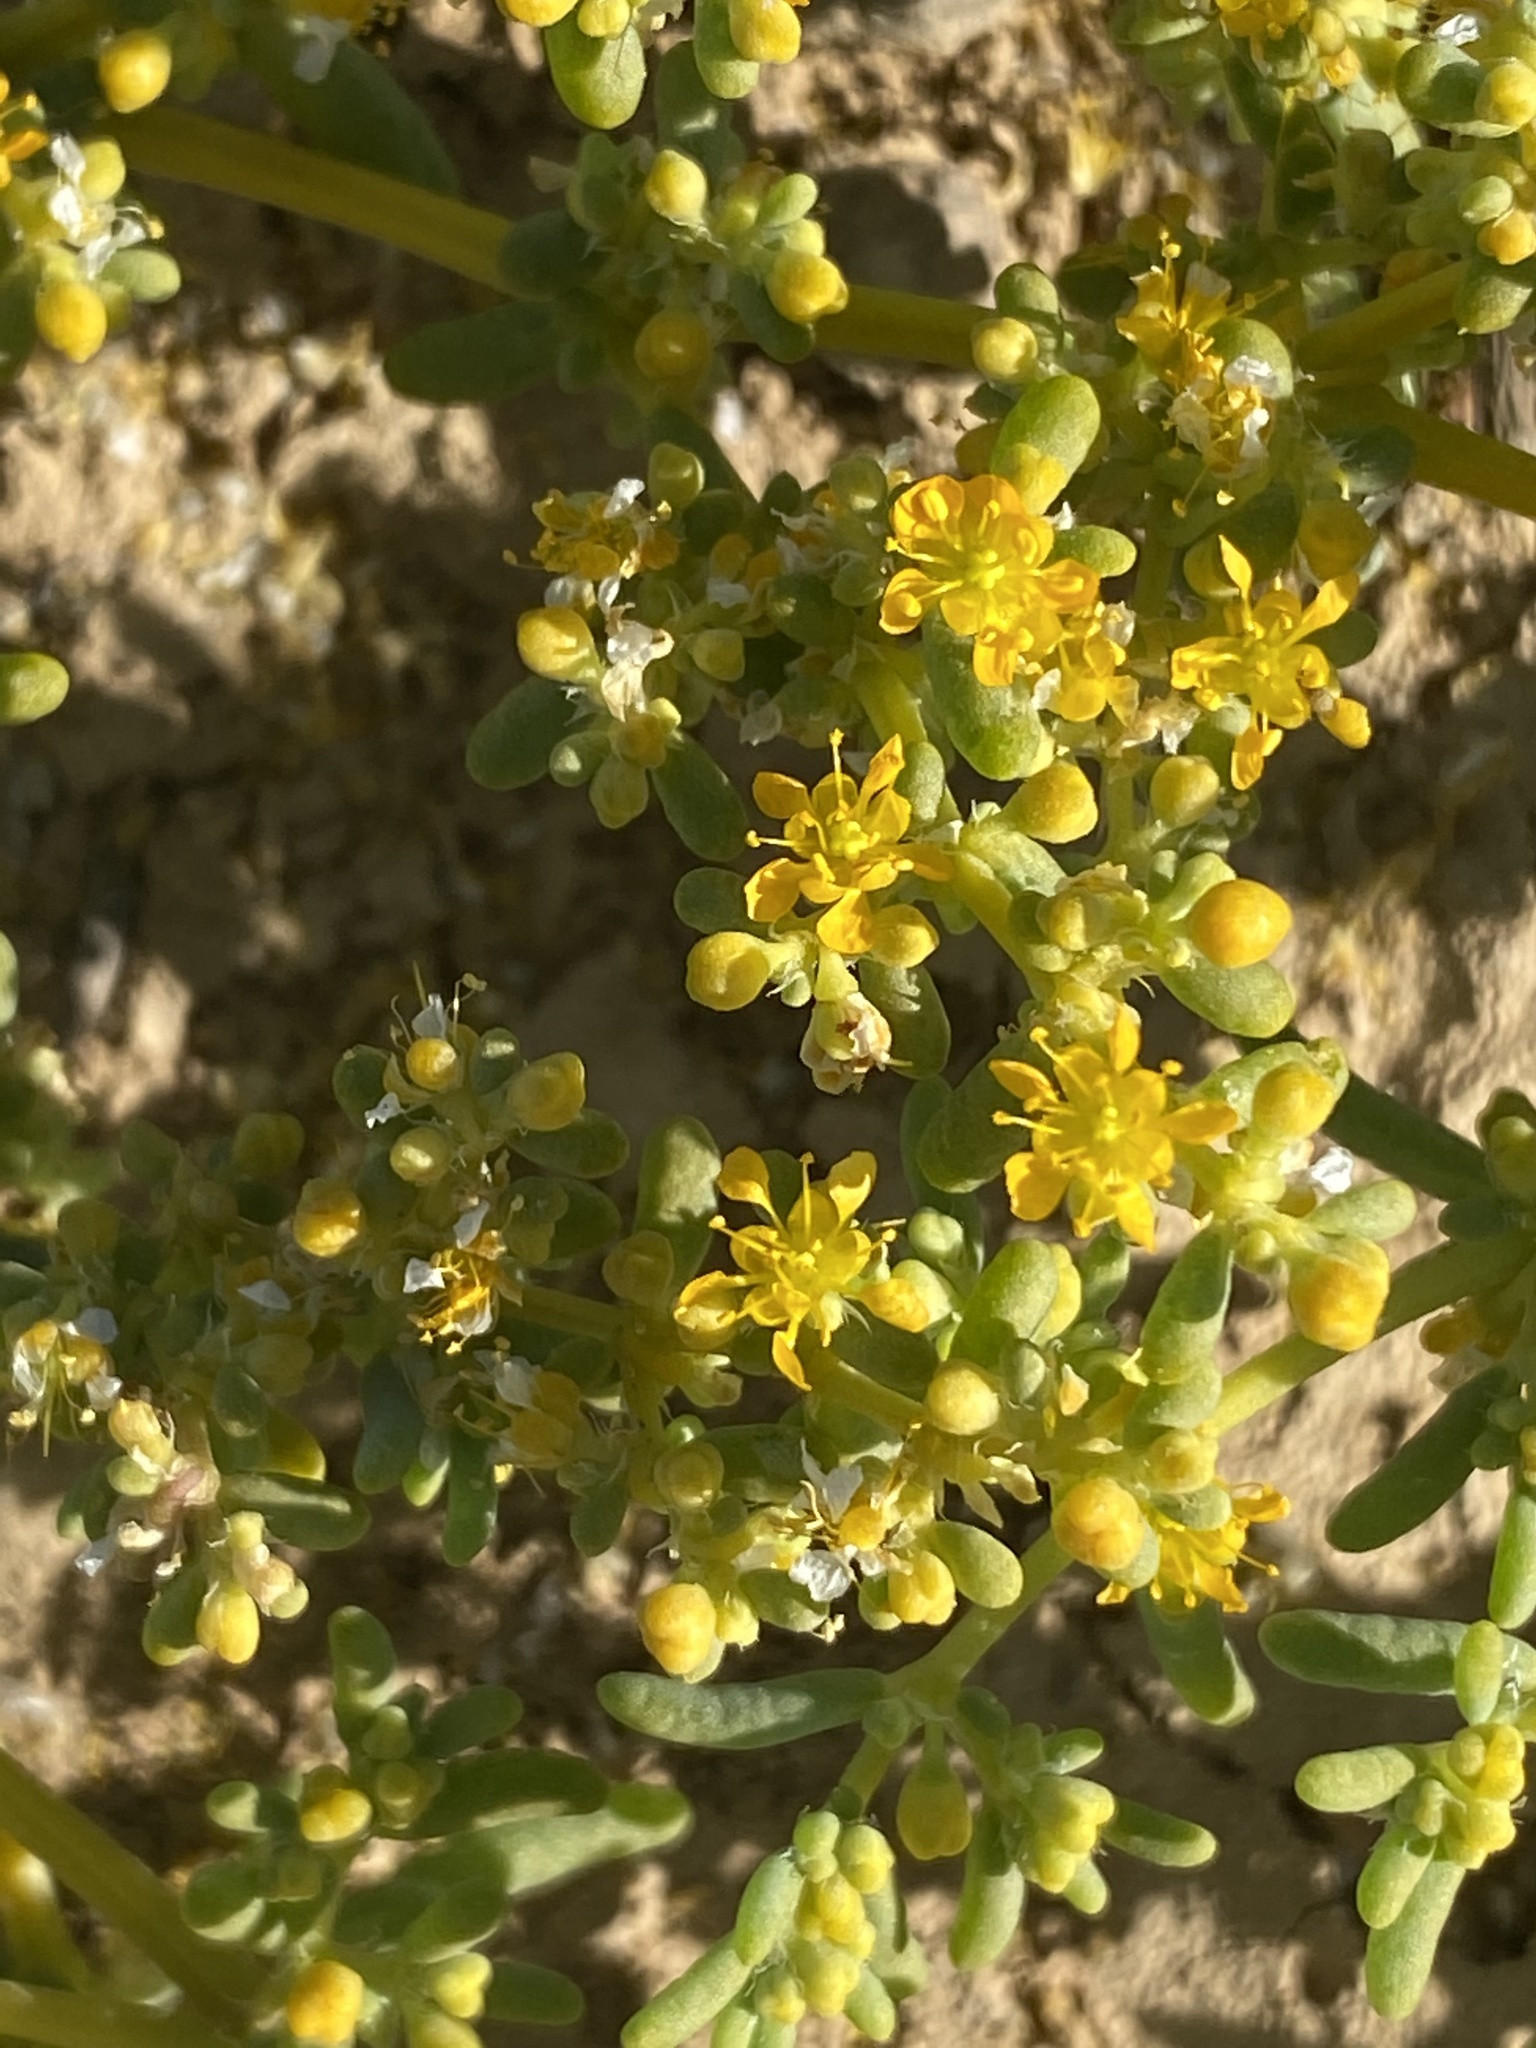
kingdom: Plantae
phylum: Tracheophyta
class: Magnoliopsida
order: Zygophyllales
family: Zygophyllaceae
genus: Tetraena
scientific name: Tetraena simplex
